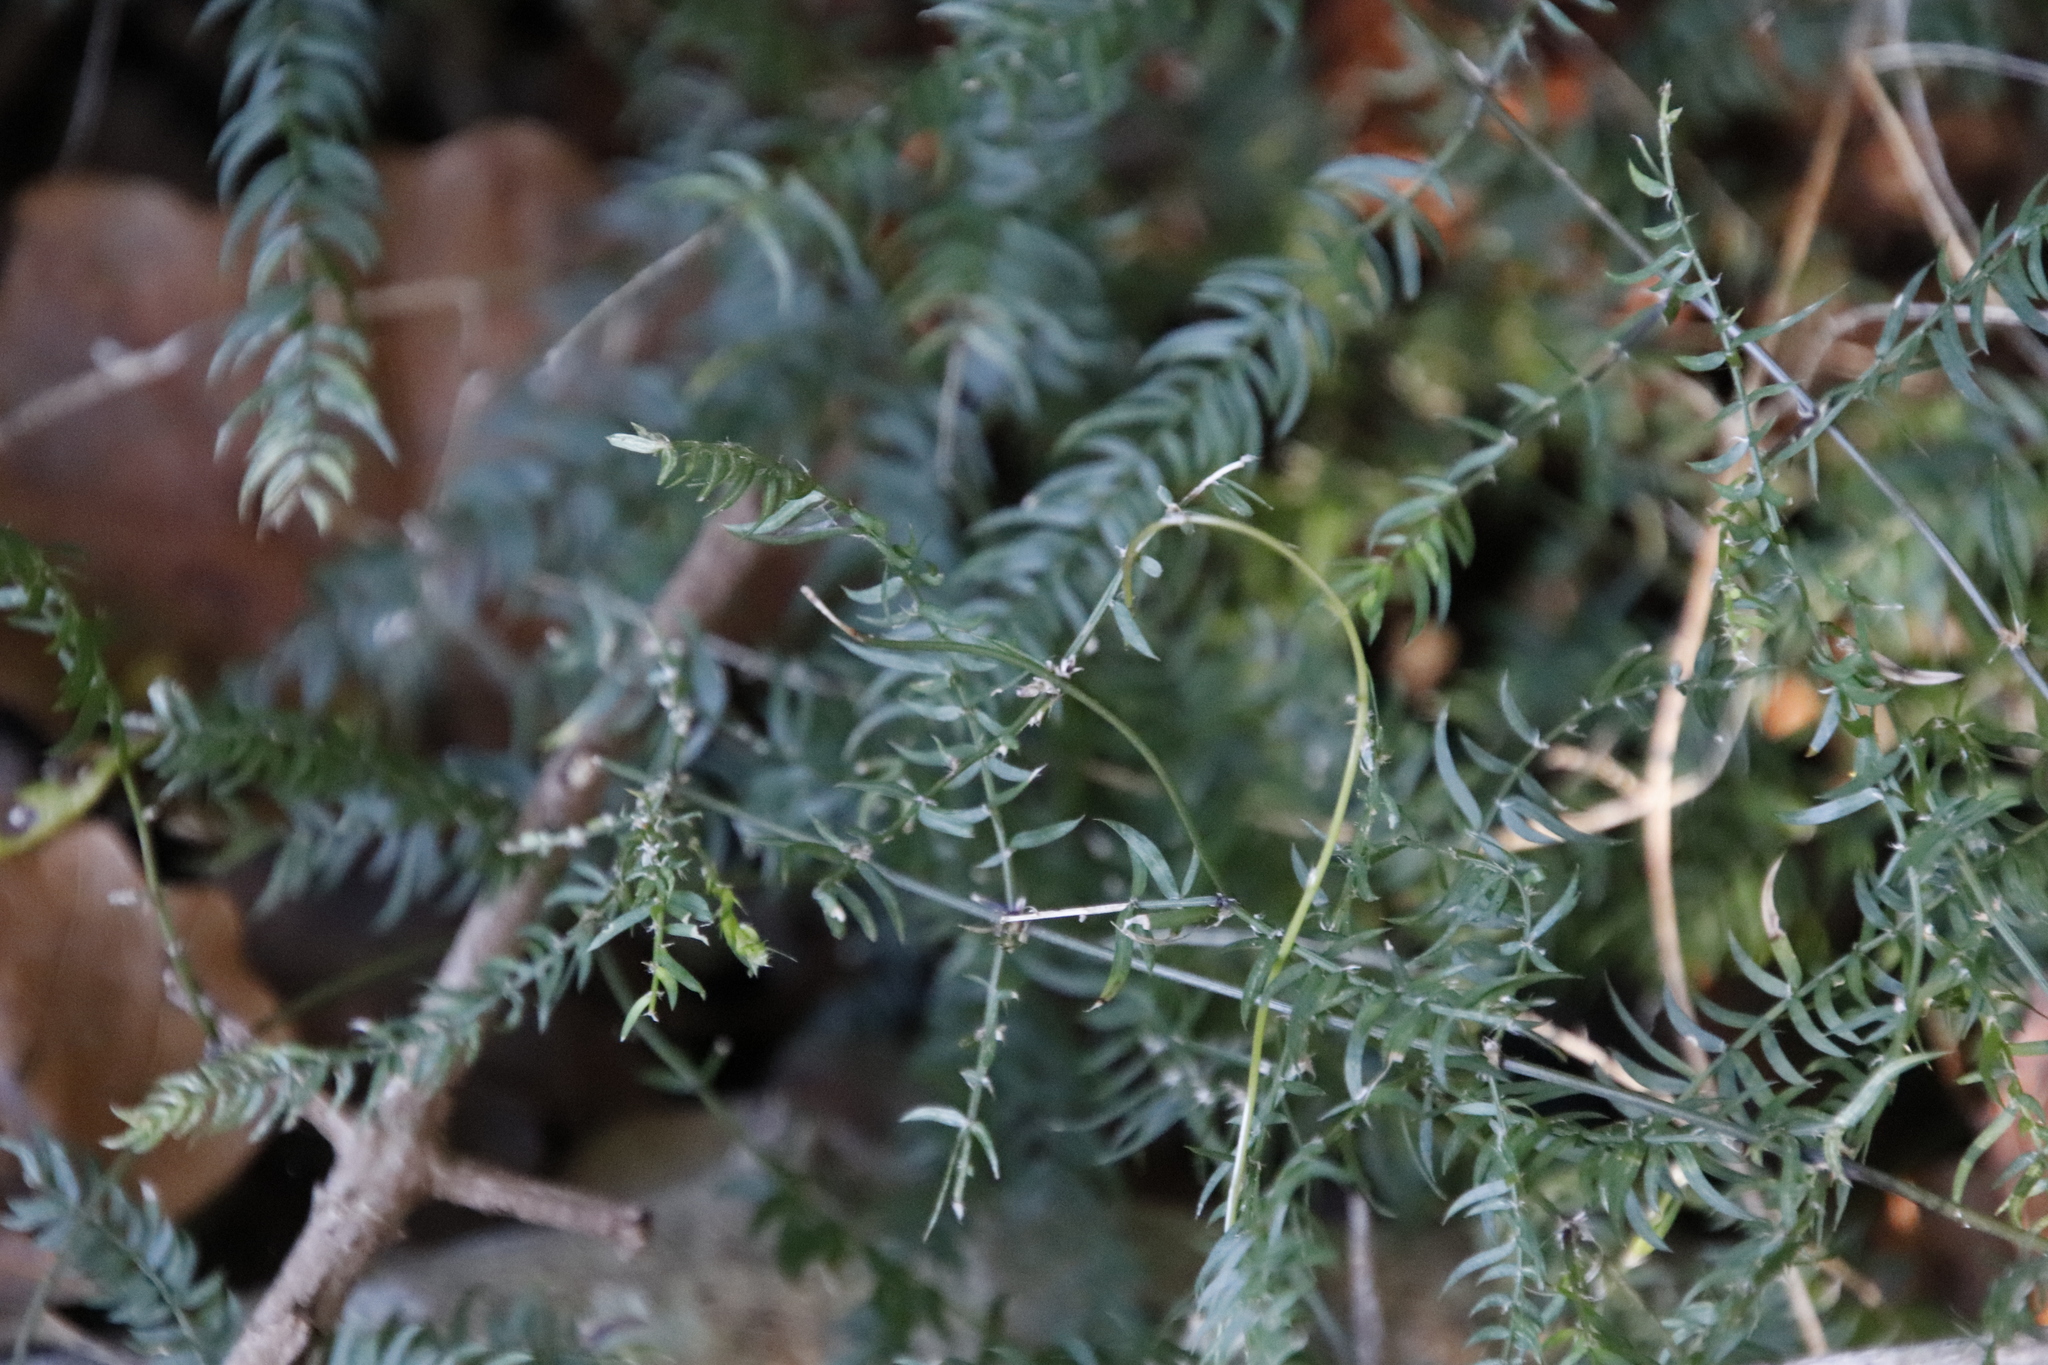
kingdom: Plantae
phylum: Tracheophyta
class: Liliopsida
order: Asparagales
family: Asparagaceae
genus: Asparagus
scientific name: Asparagus scandens
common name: Asparagus-fern
